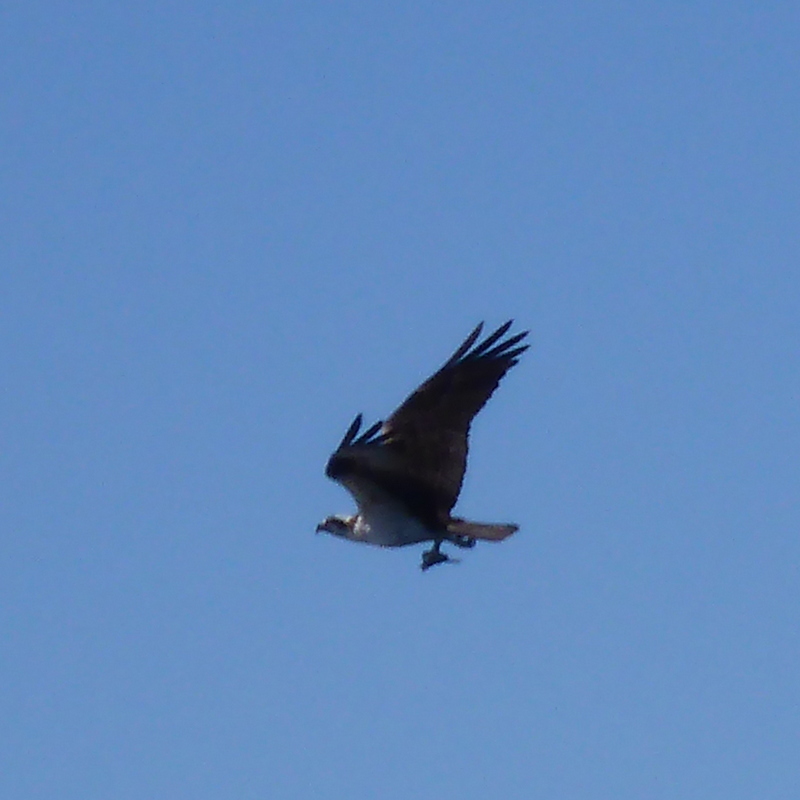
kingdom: Animalia
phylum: Chordata
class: Aves
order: Accipitriformes
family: Pandionidae
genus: Pandion
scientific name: Pandion haliaetus
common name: Osprey
